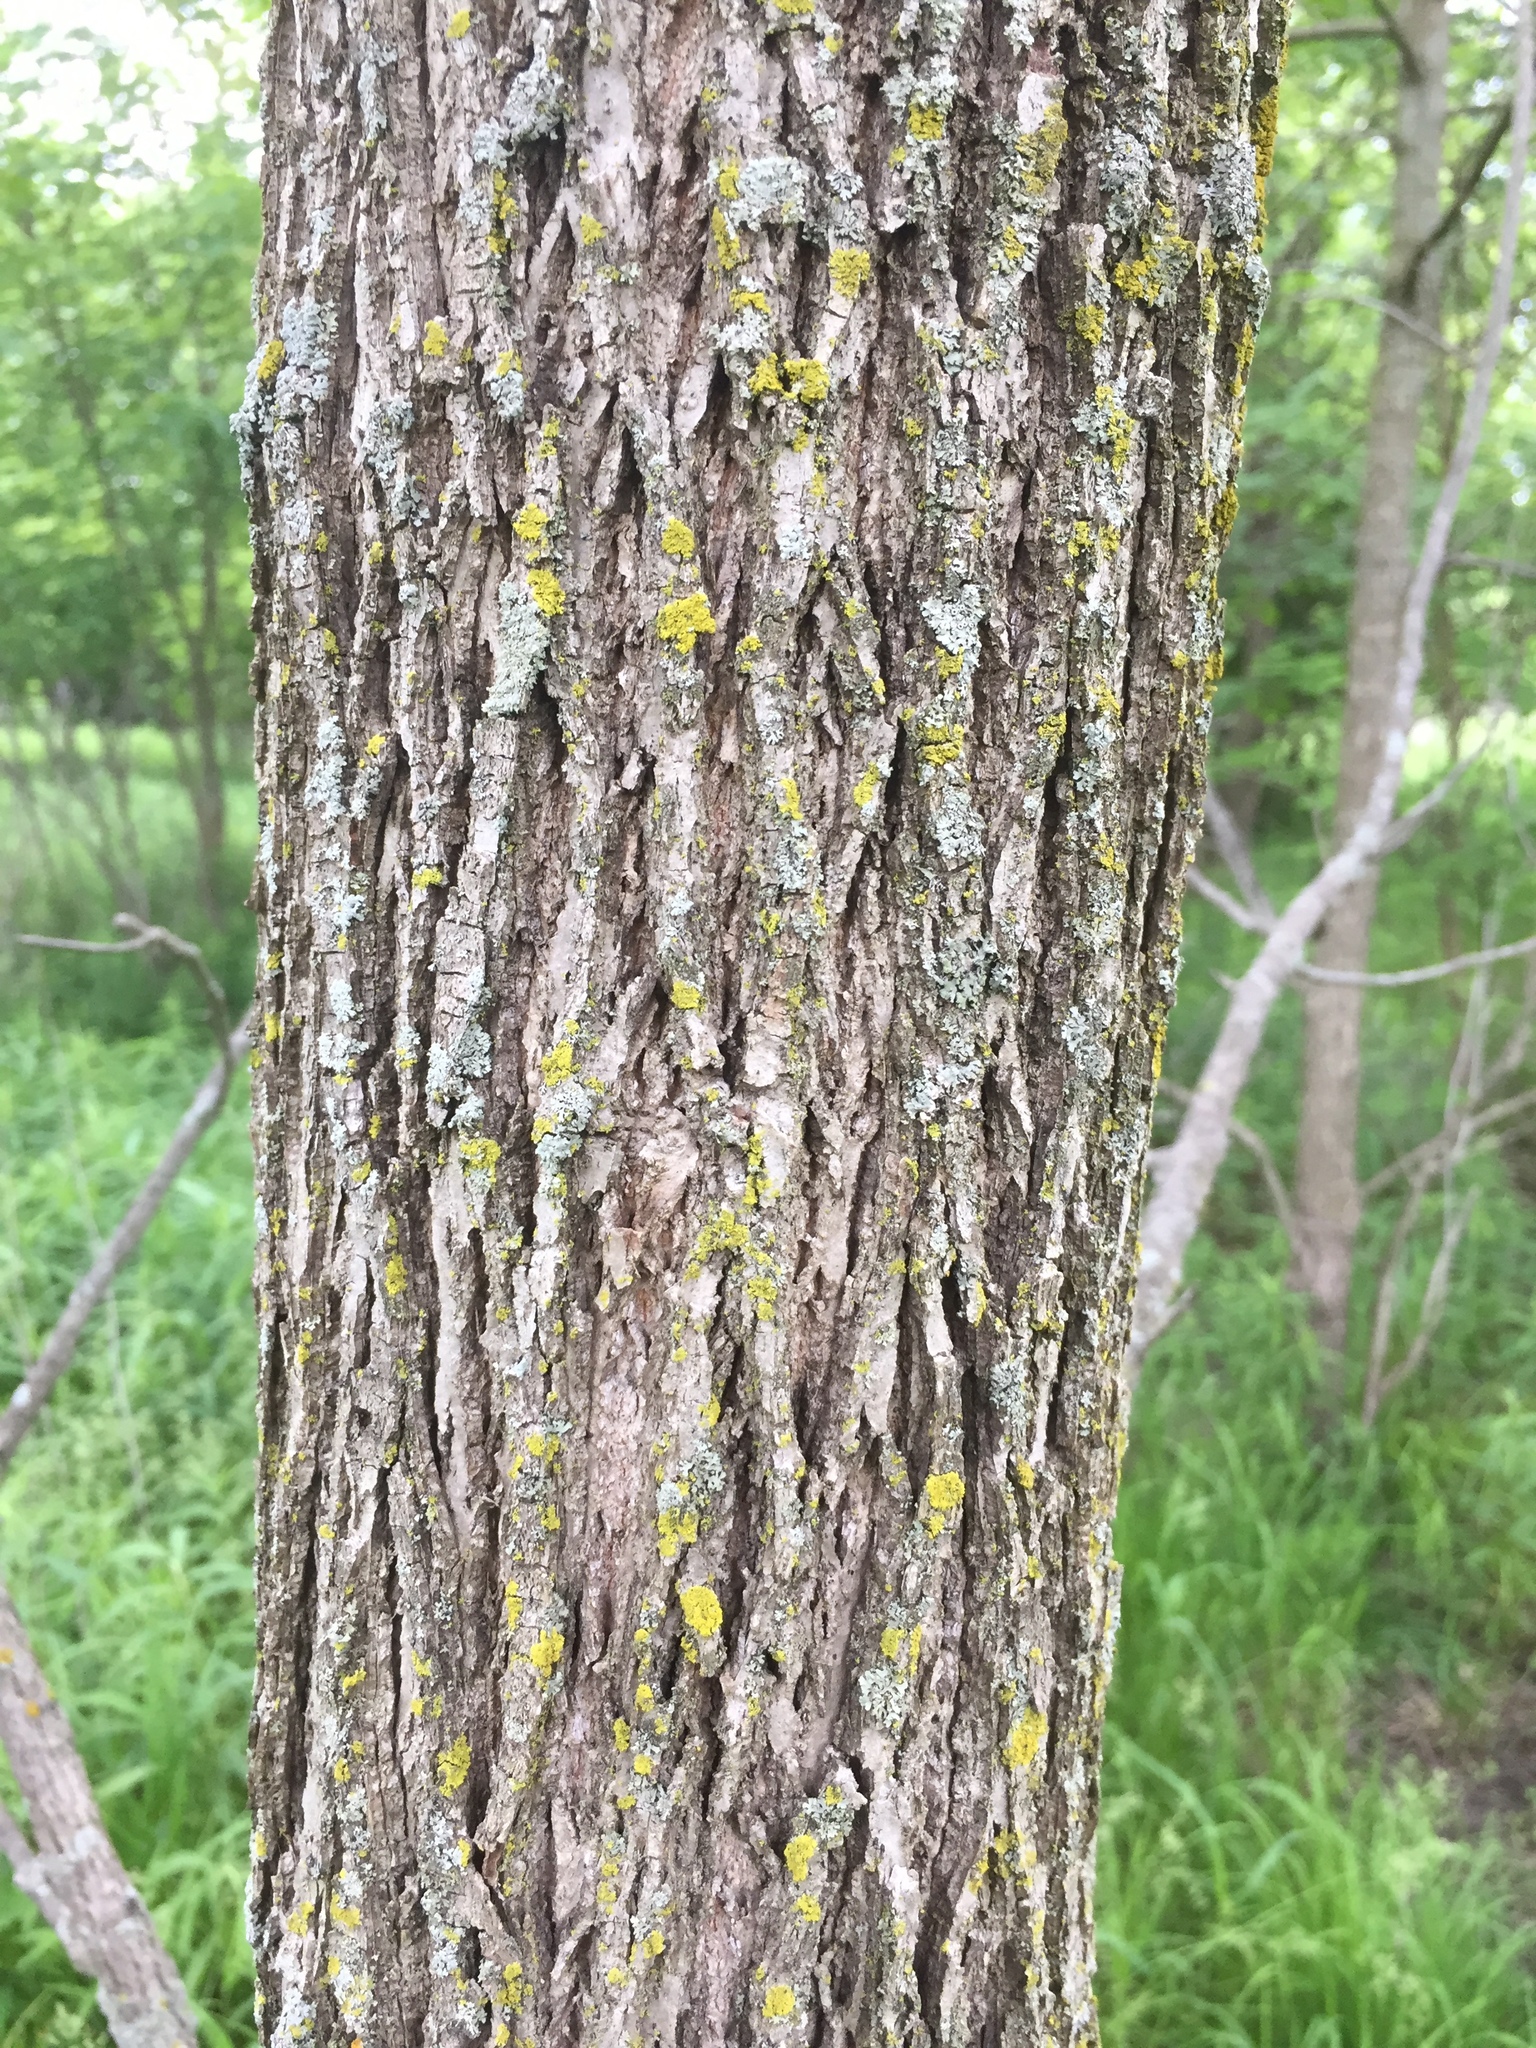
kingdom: Plantae
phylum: Tracheophyta
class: Magnoliopsida
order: Fagales
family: Juglandaceae
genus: Juglans
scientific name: Juglans nigra
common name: Black walnut
